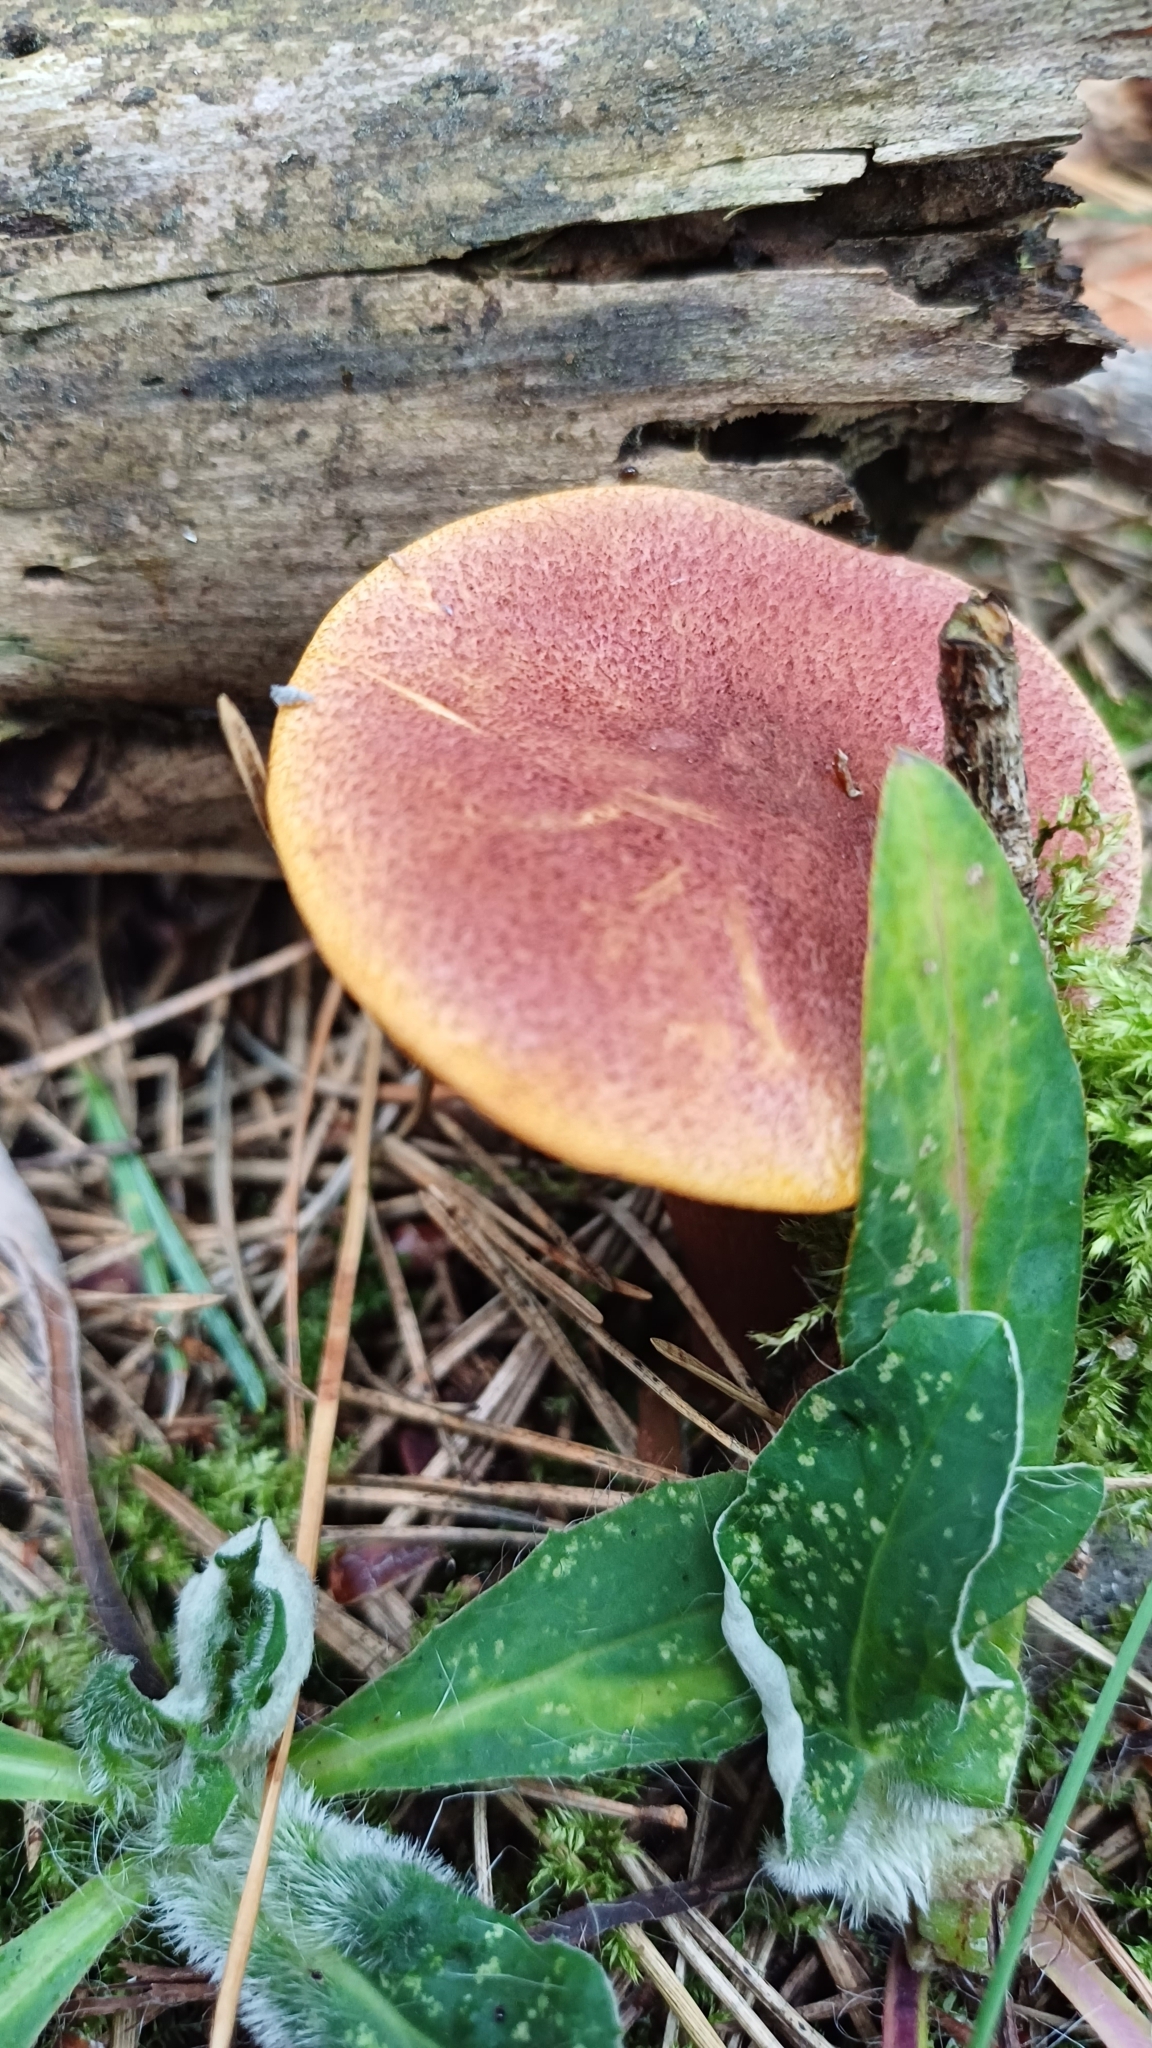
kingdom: Fungi
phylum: Basidiomycota
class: Agaricomycetes
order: Agaricales
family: Tricholomataceae
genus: Tricholomopsis
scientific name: Tricholomopsis rutilans
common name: Plums and custard
